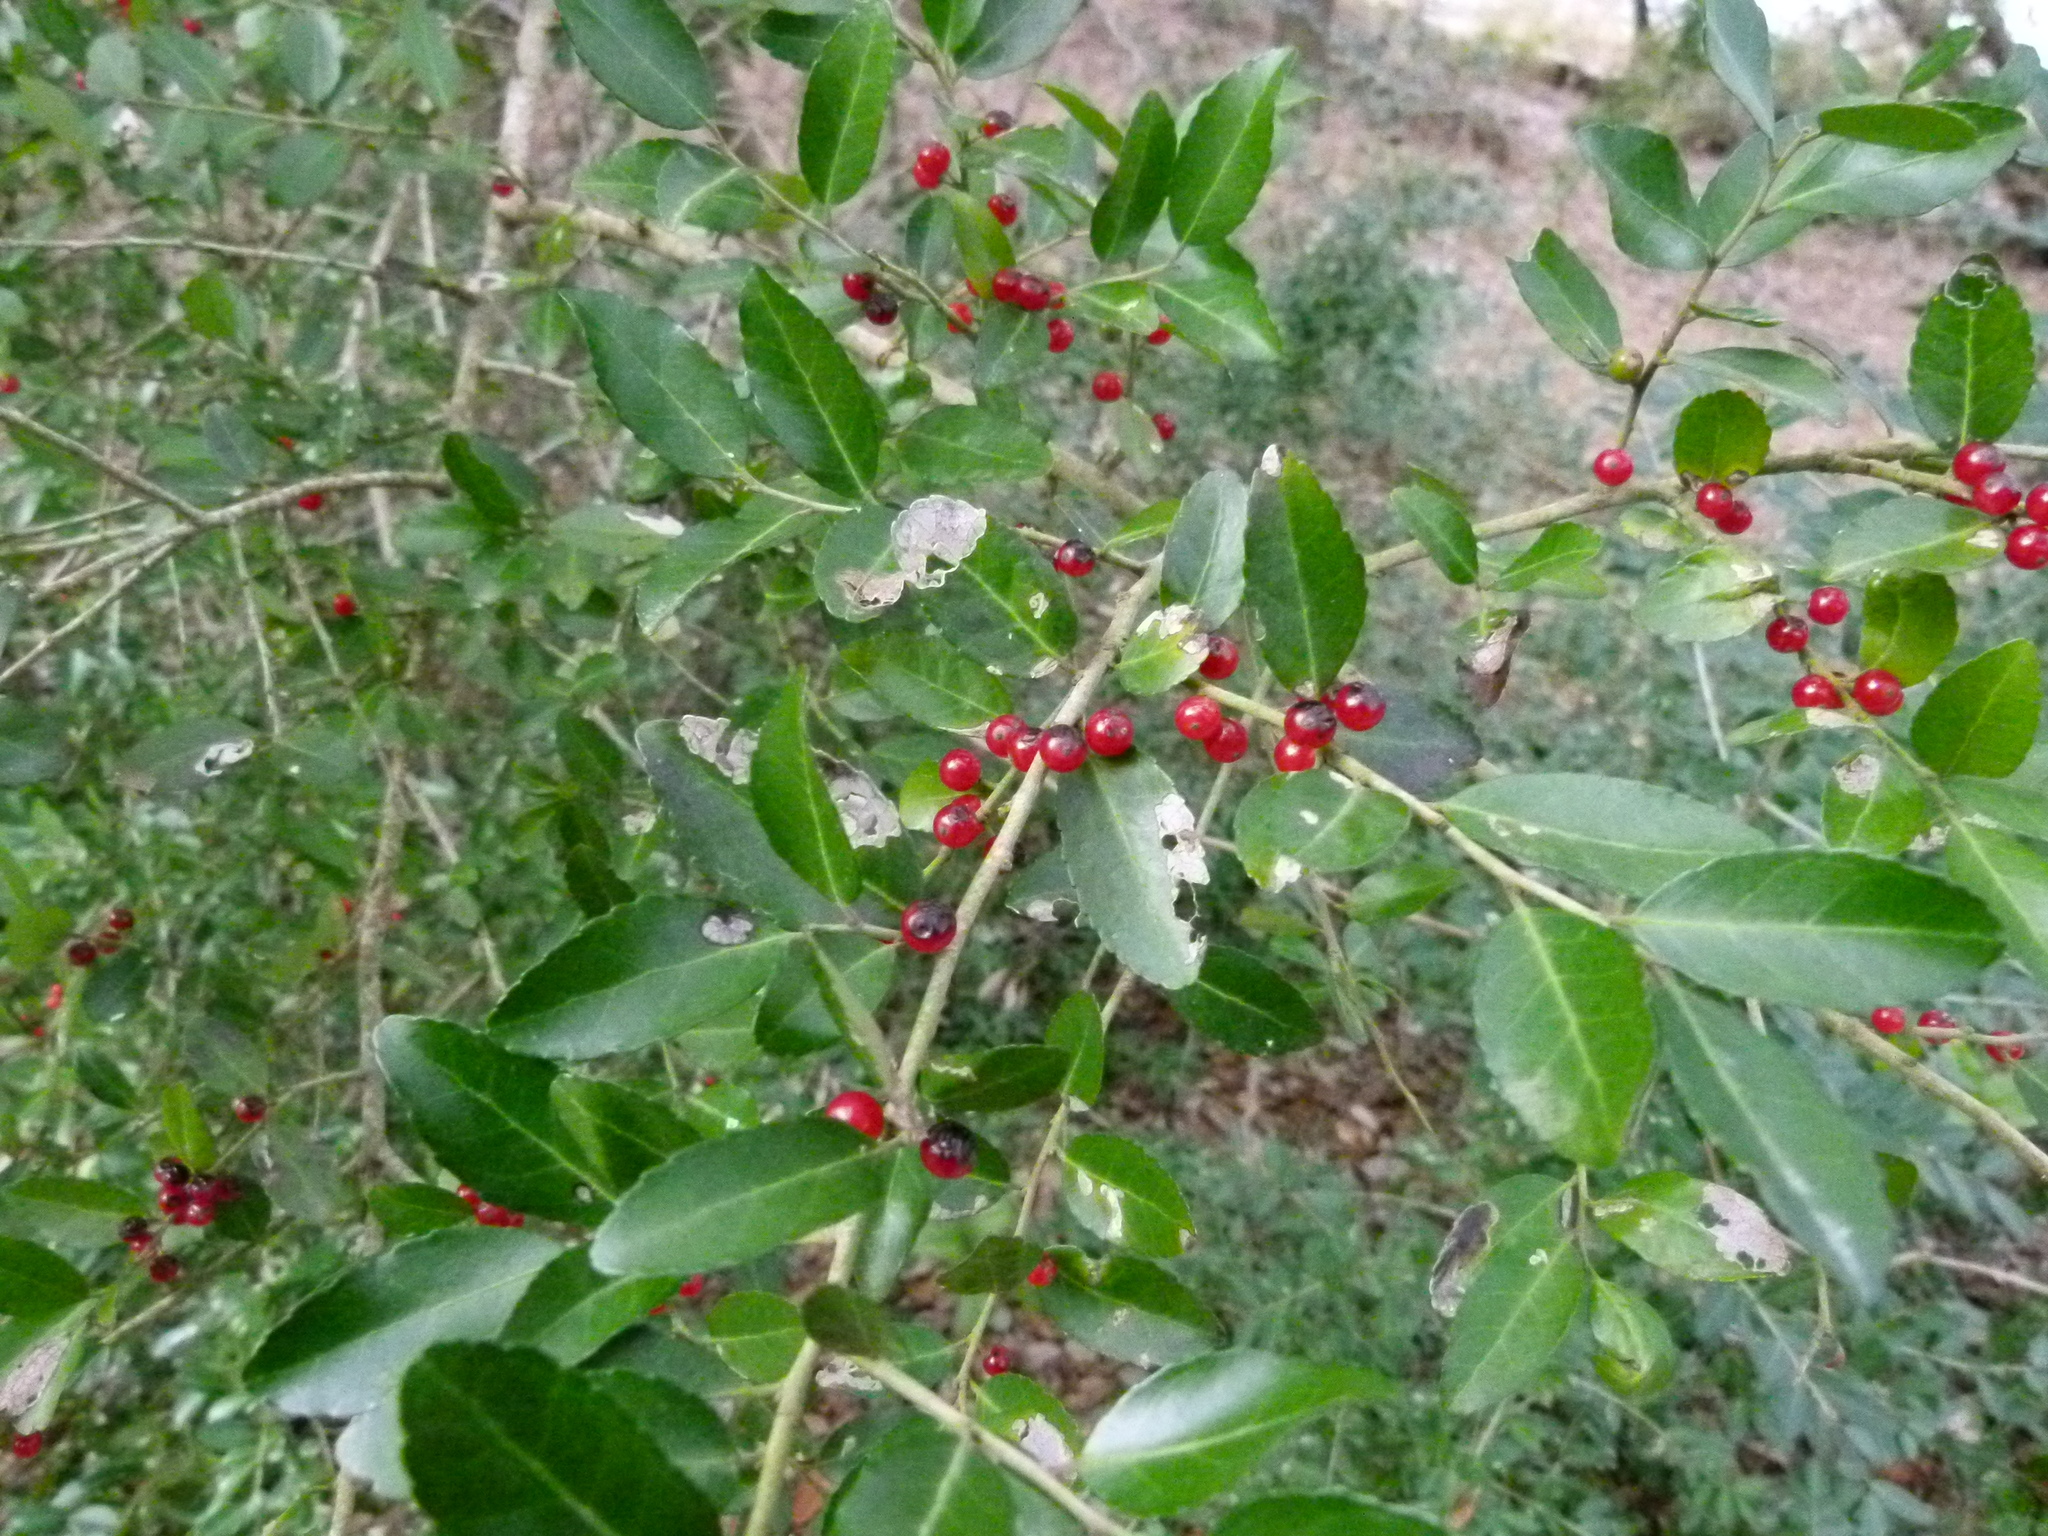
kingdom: Plantae
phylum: Tracheophyta
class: Magnoliopsida
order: Aquifoliales
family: Aquifoliaceae
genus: Ilex
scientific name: Ilex vomitoria
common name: Yaupon holly
